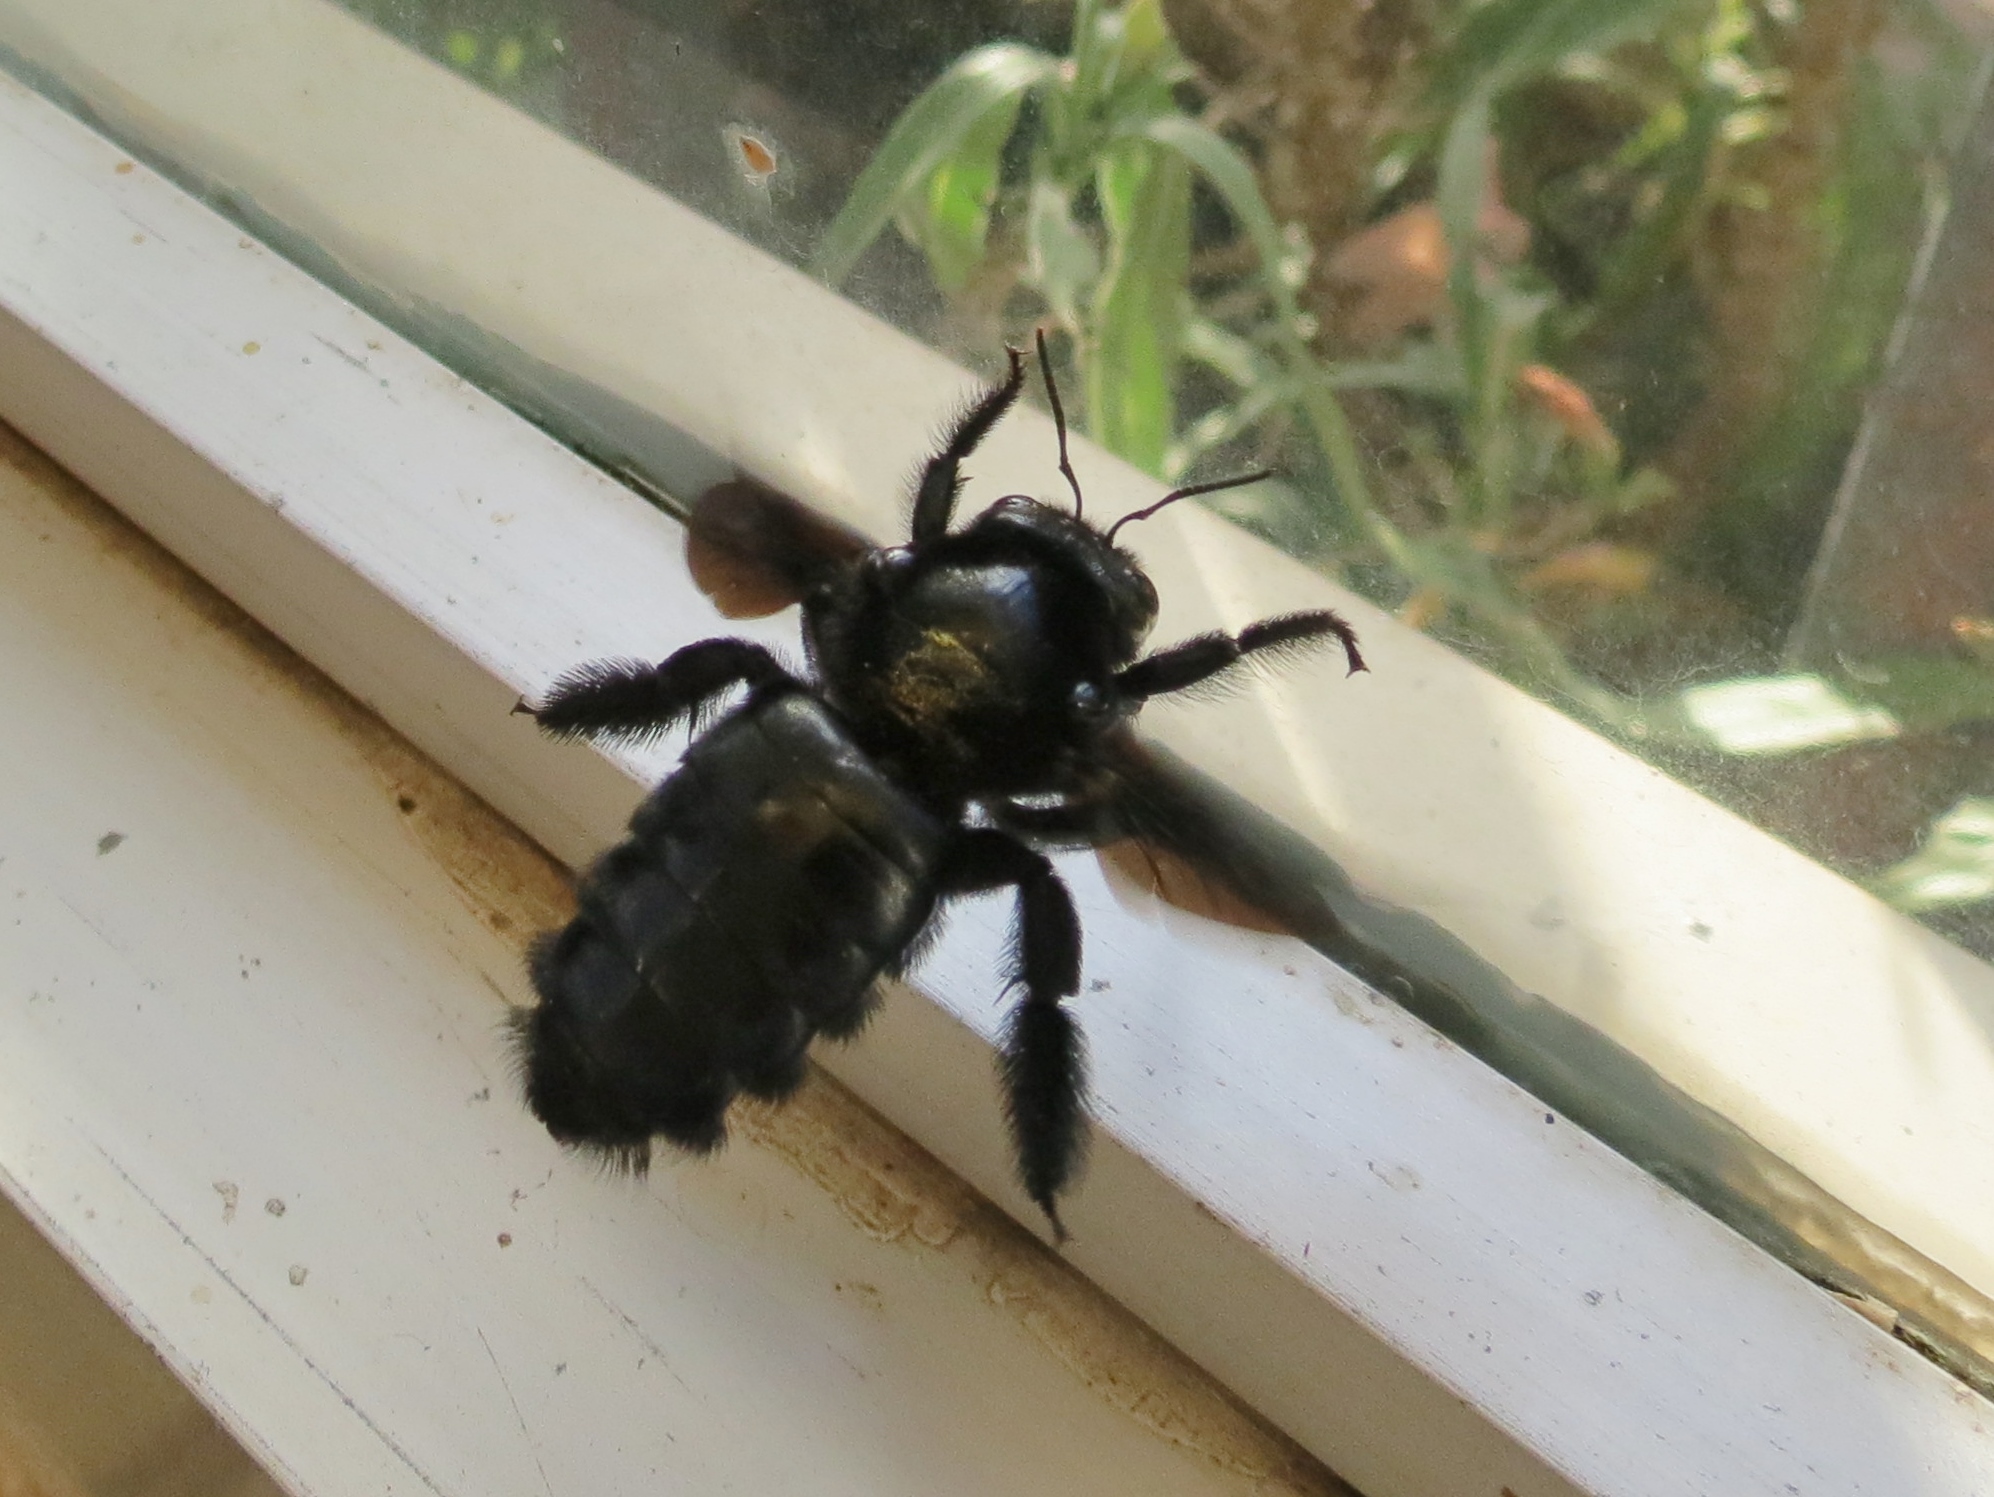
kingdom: Animalia
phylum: Arthropoda
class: Insecta
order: Hymenoptera
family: Apidae
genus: Xylocopa
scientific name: Xylocopa mordax
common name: Antillean carpenter bee
